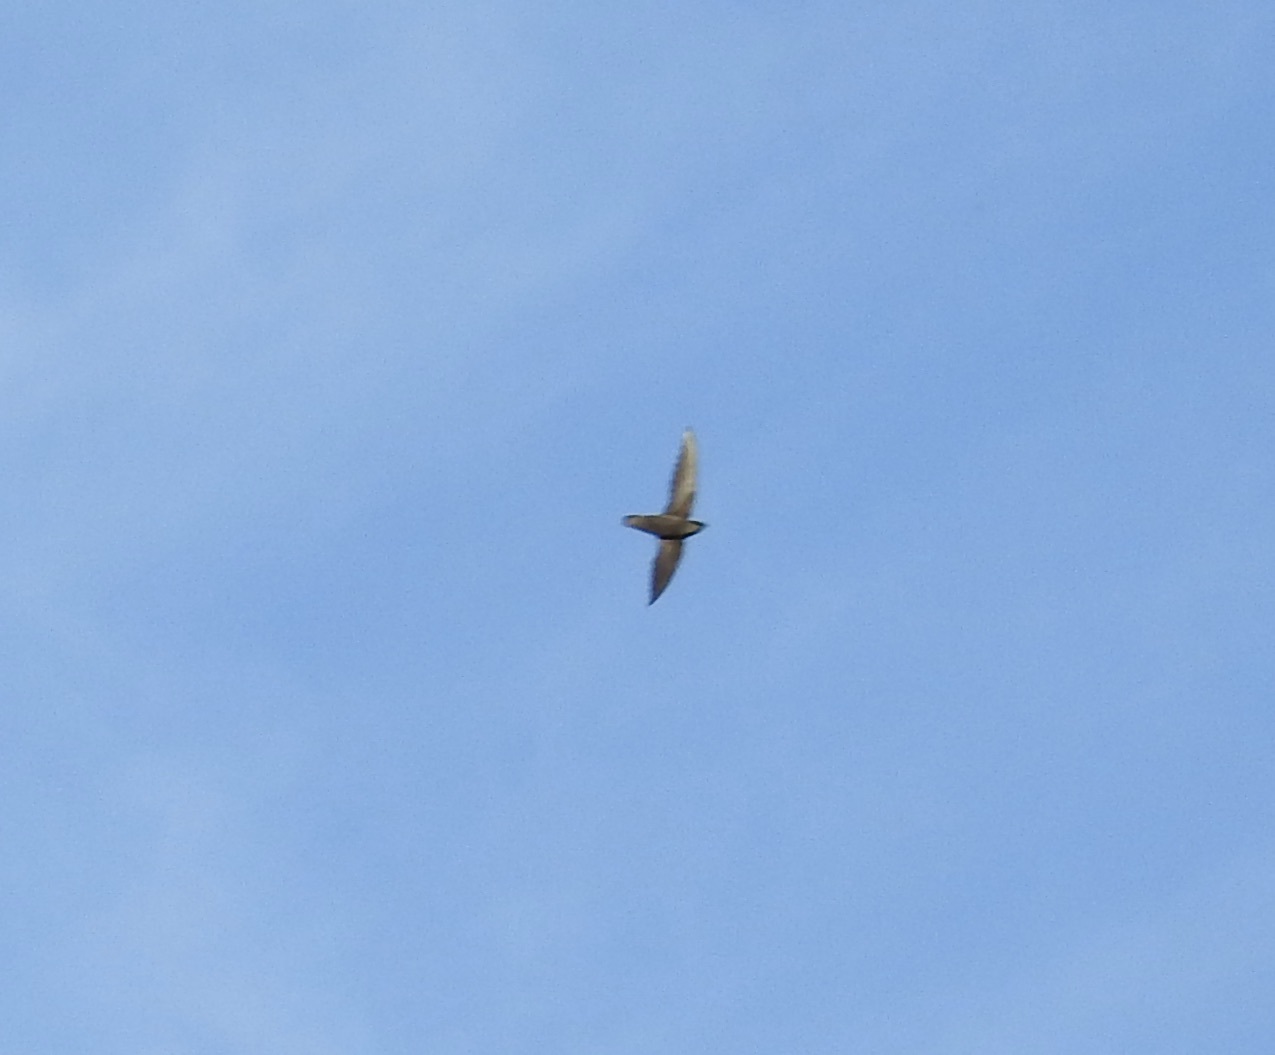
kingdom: Animalia
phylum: Chordata
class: Aves
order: Apodiformes
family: Apodidae
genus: Chaetura
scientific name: Chaetura pelagica
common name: Chimney swift
